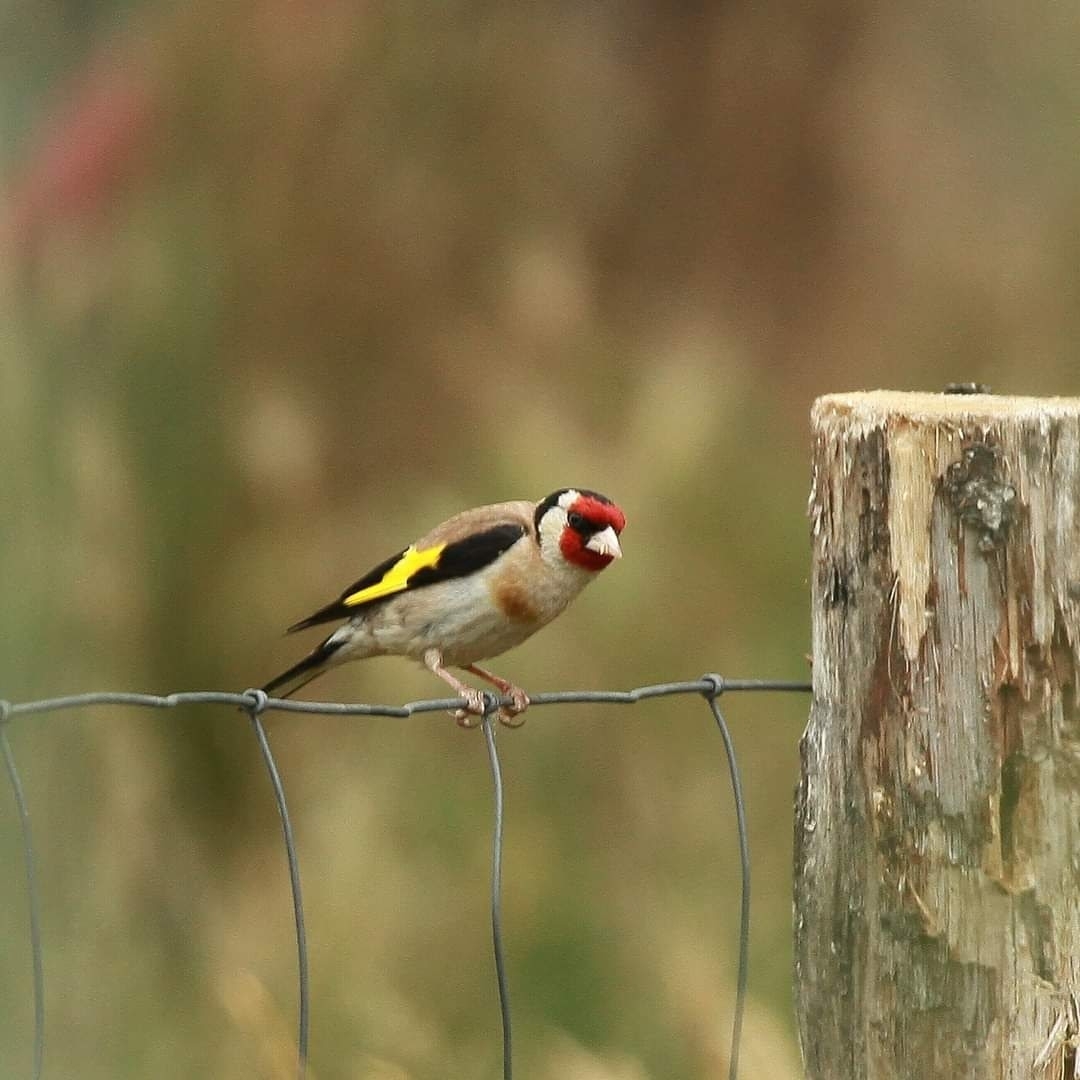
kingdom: Animalia
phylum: Chordata
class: Aves
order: Passeriformes
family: Fringillidae
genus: Carduelis
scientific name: Carduelis carduelis
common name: European goldfinch
